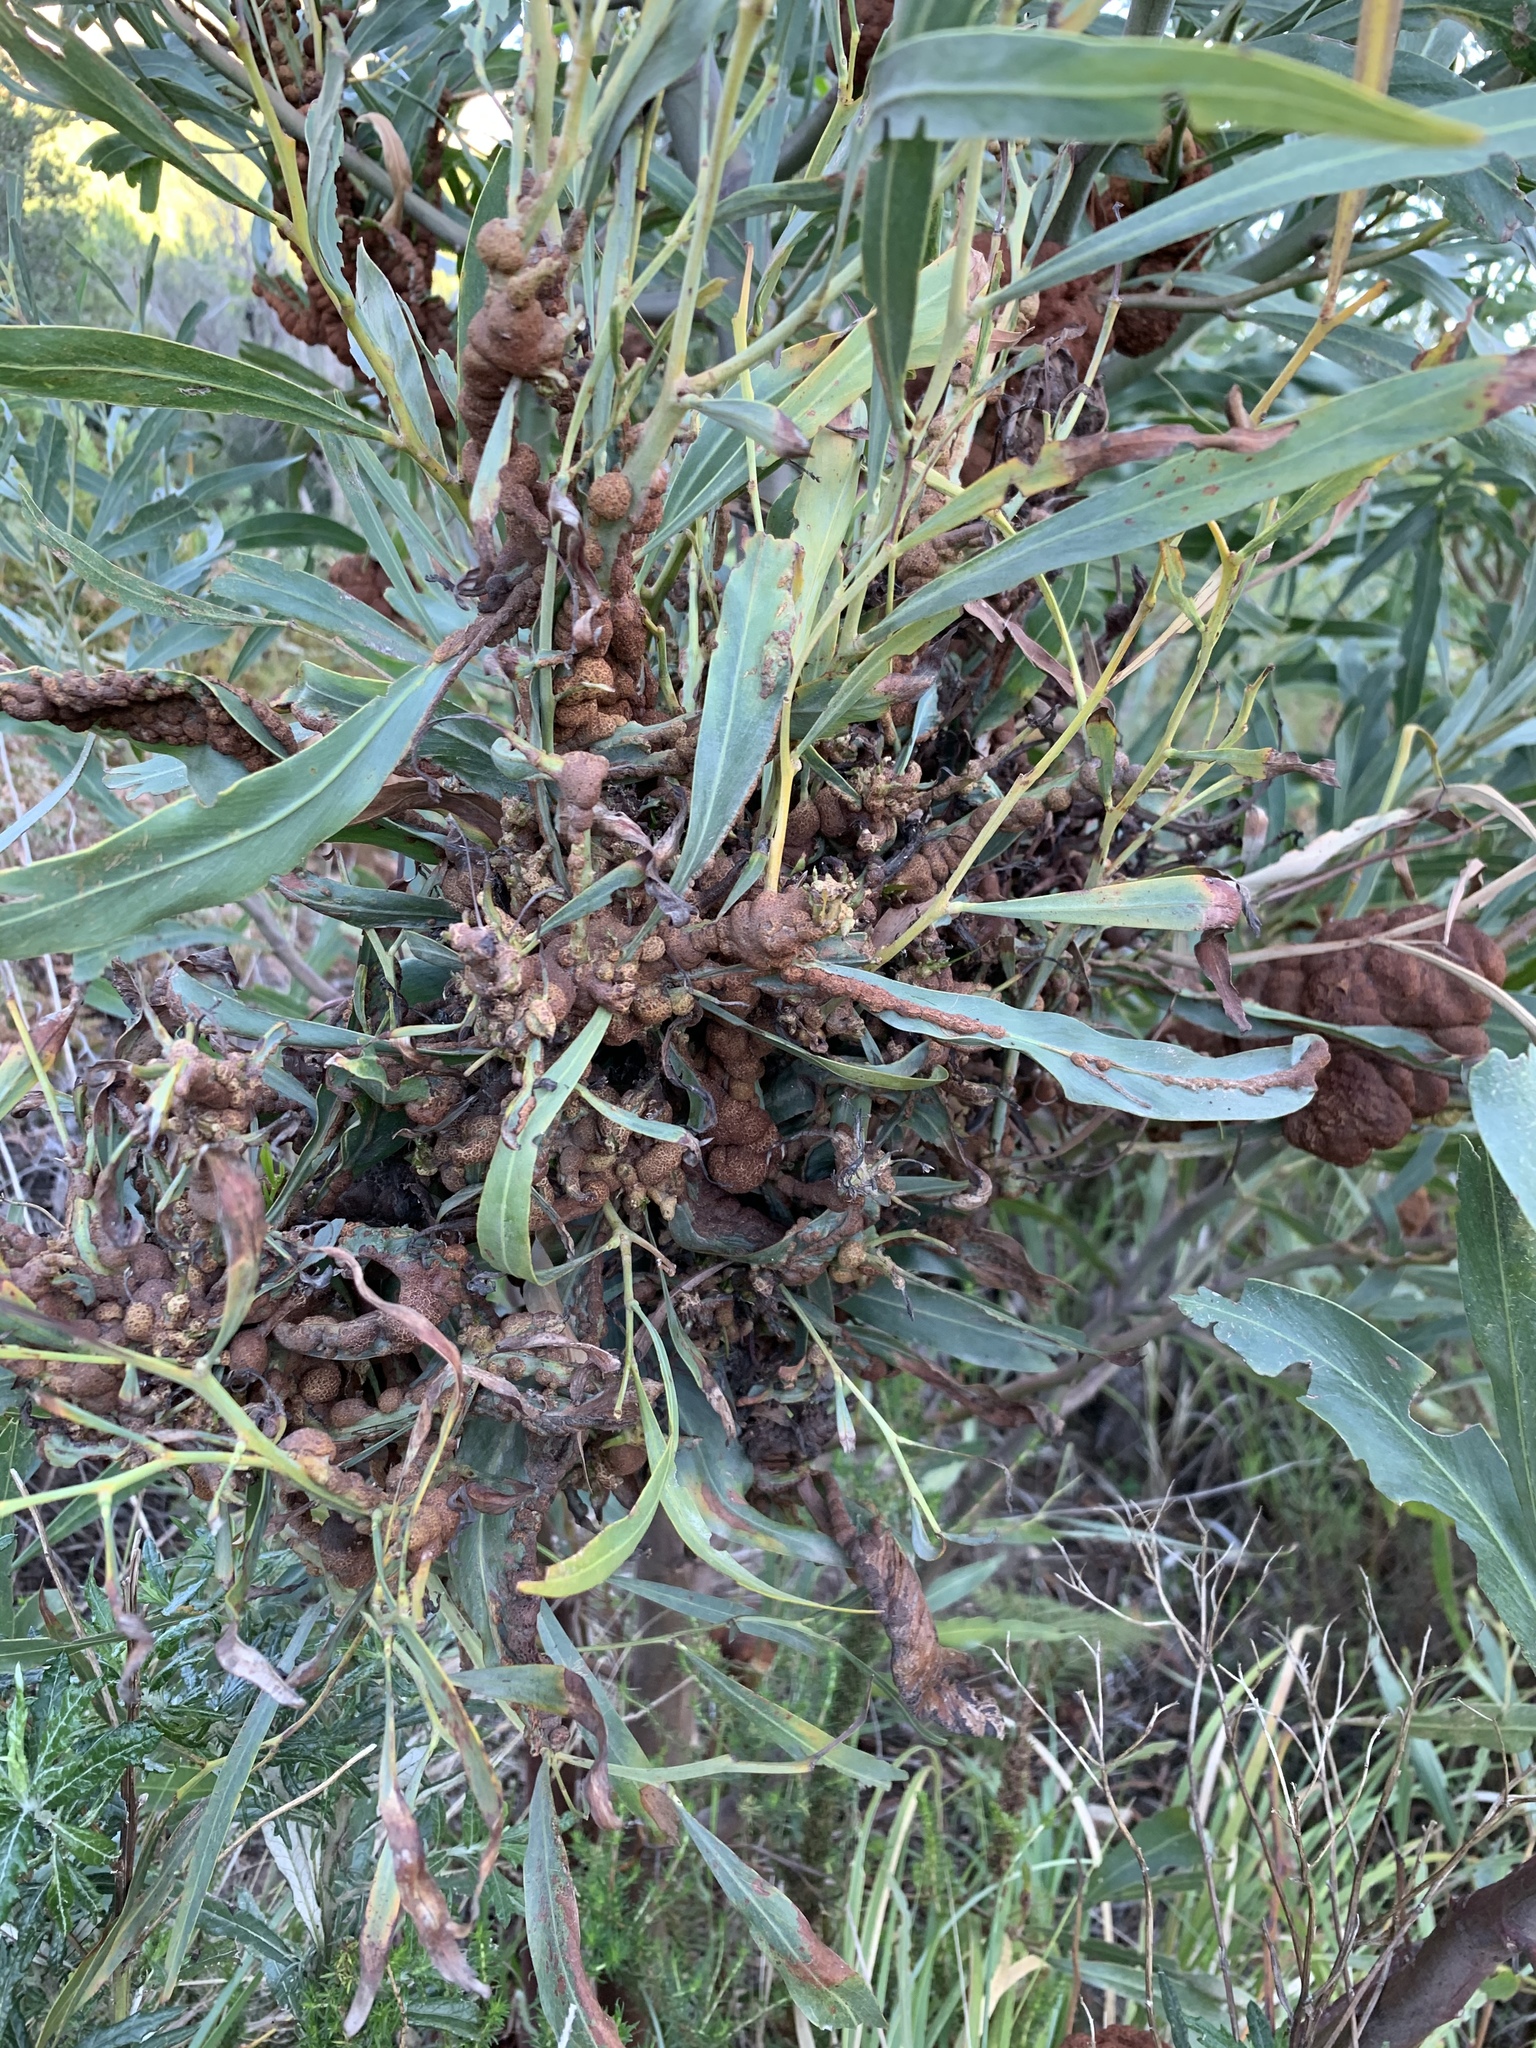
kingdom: Fungi
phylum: Basidiomycota
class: Pucciniomycetes
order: Pucciniales
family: Uromycladiaceae
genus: Uromycladium
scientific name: Uromycladium morrisii
